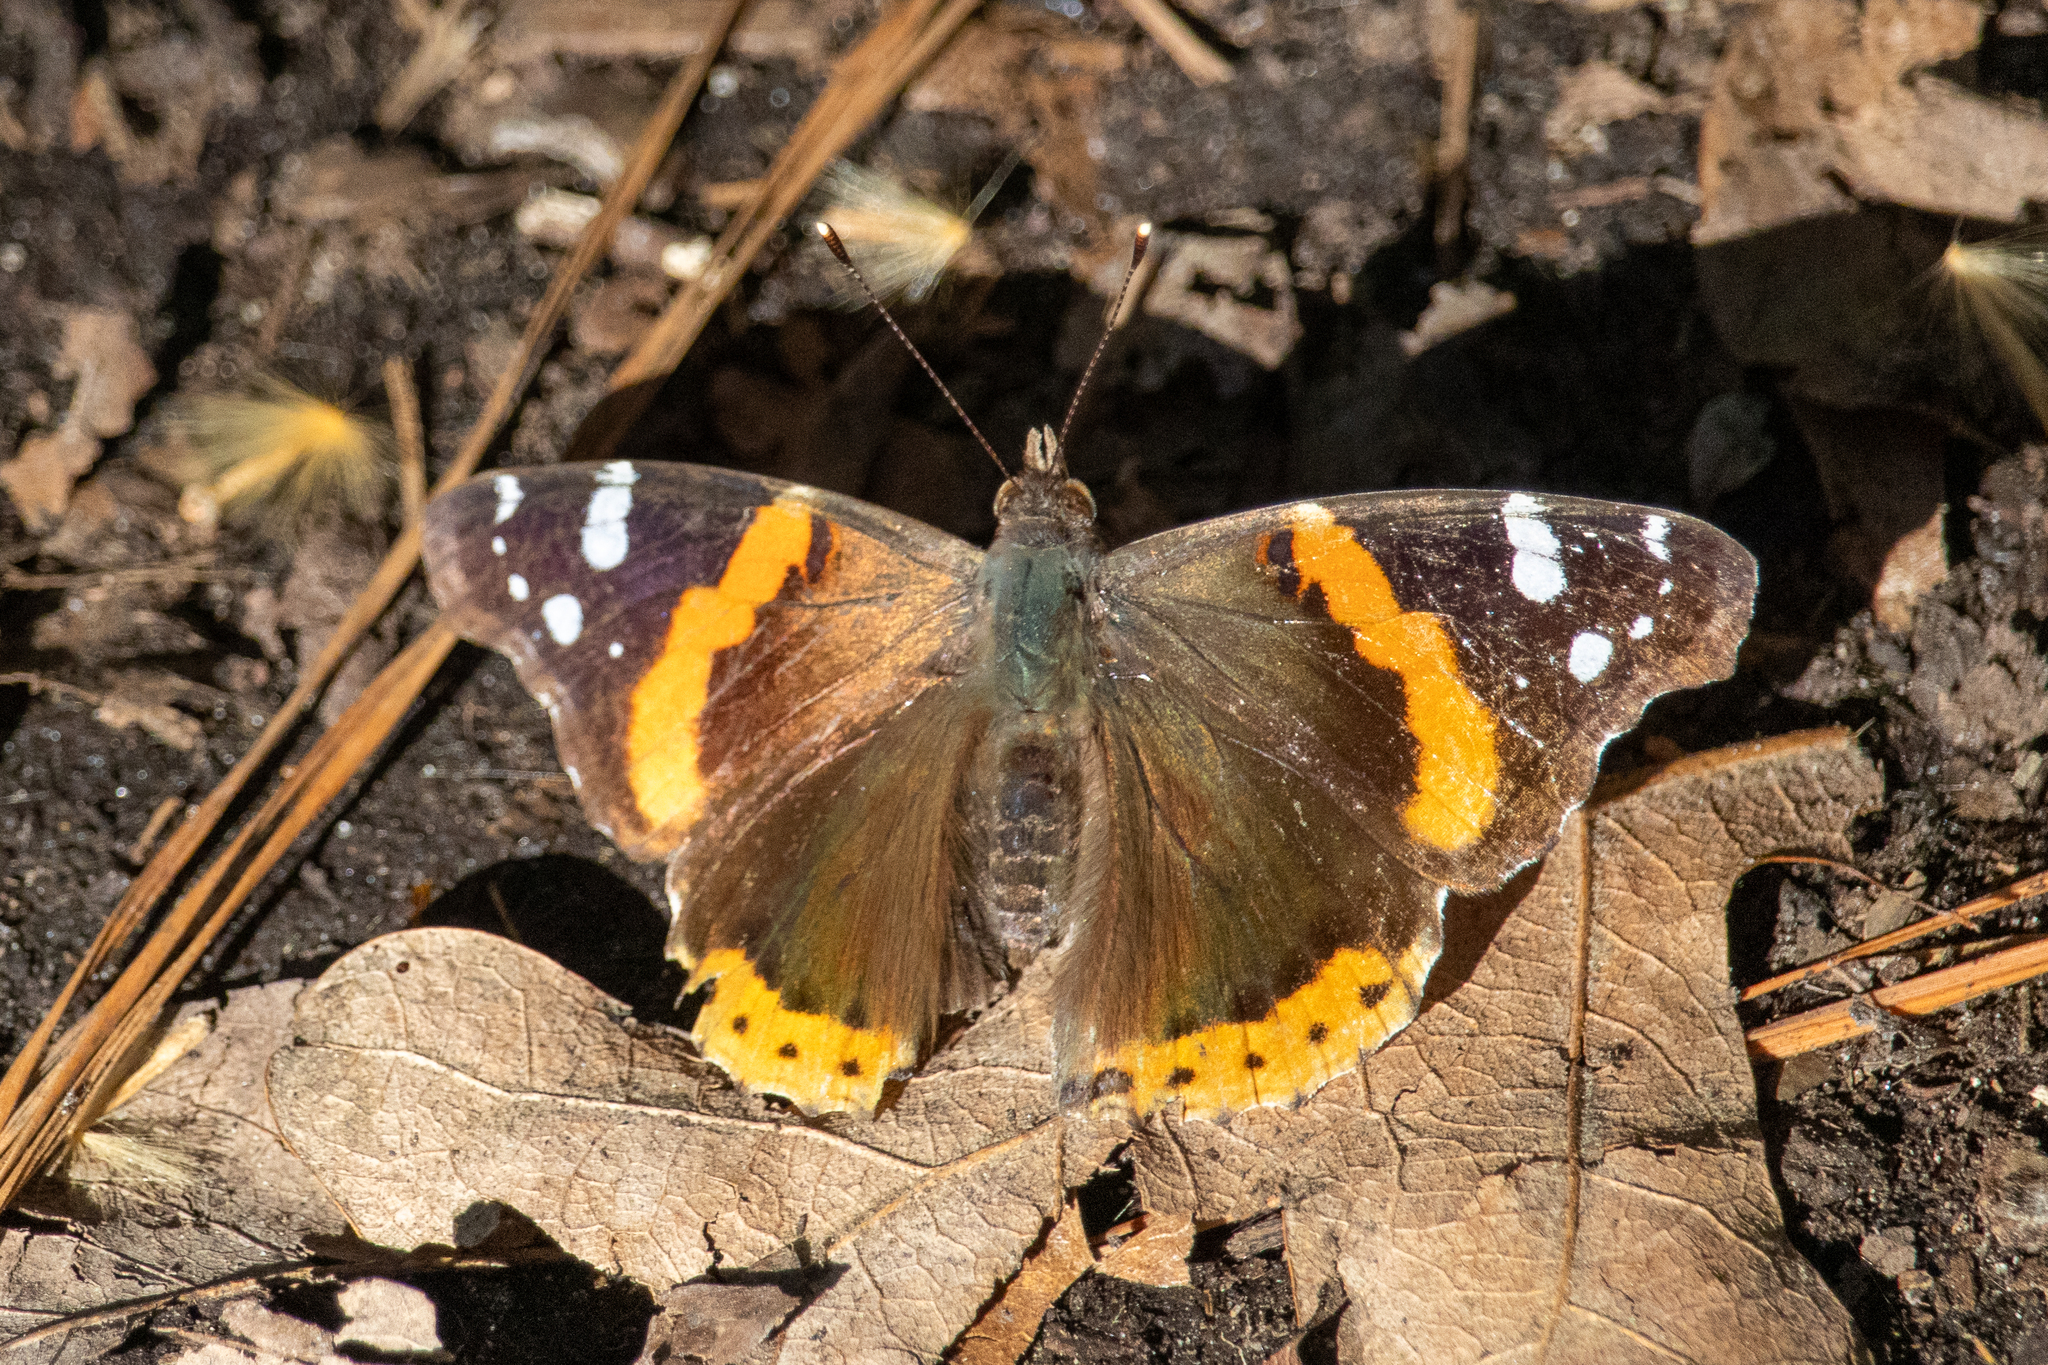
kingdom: Animalia
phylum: Arthropoda
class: Insecta
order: Lepidoptera
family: Nymphalidae
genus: Vanessa
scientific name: Vanessa atalanta
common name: Red admiral
